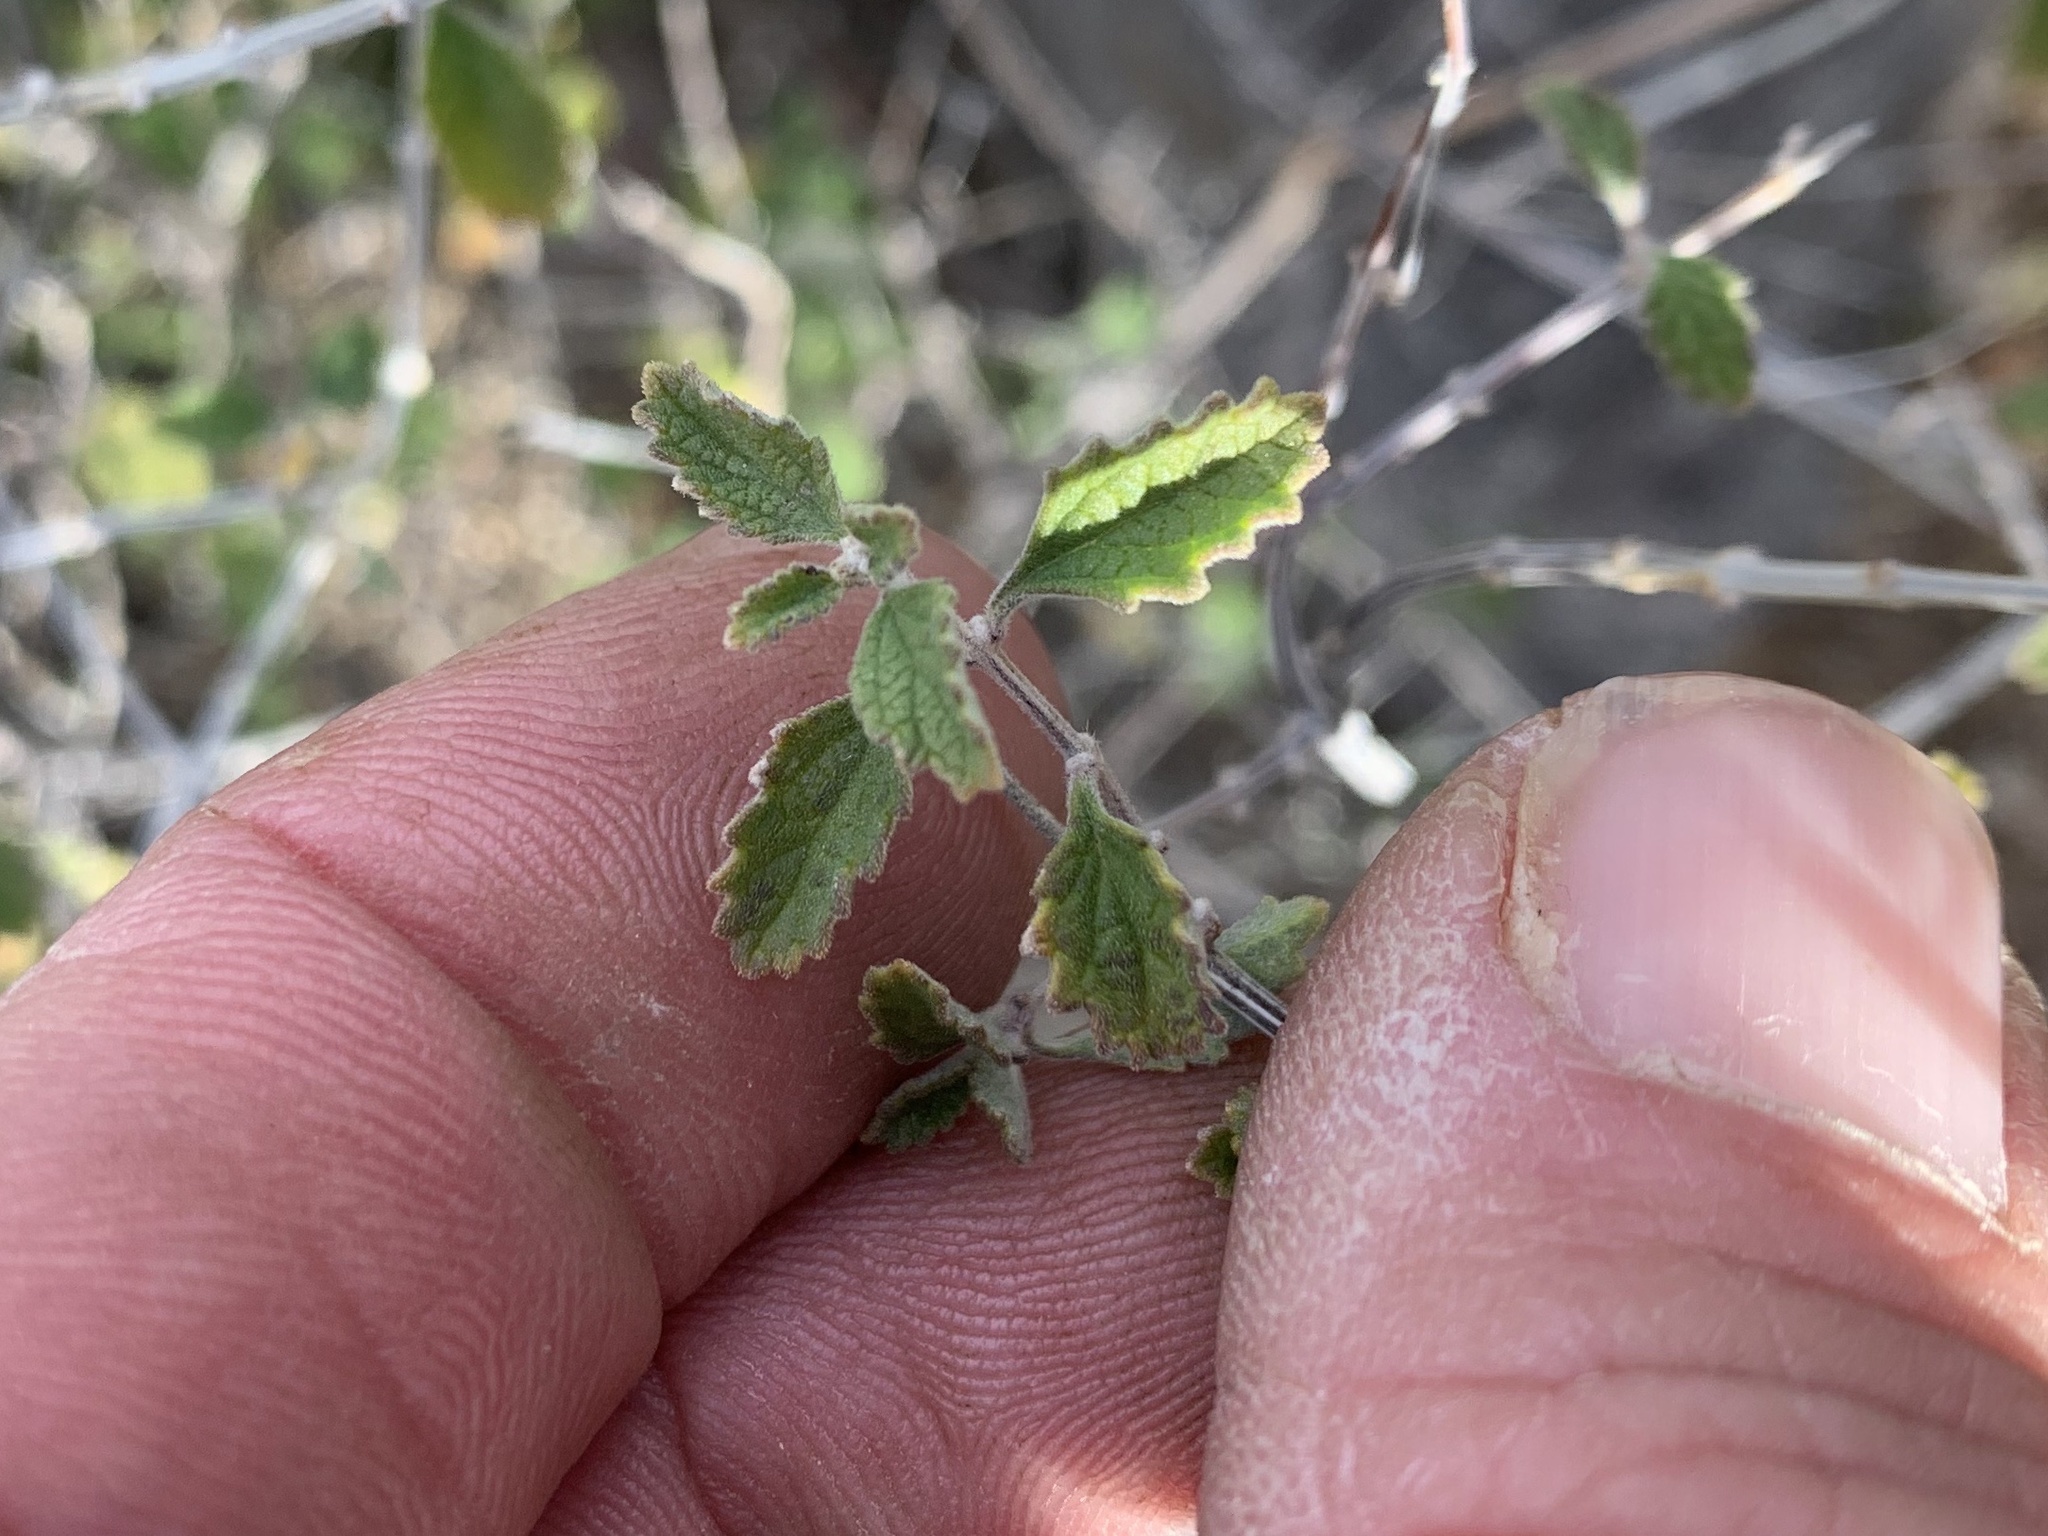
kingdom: Plantae
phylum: Tracheophyta
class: Magnoliopsida
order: Lamiales
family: Verbenaceae
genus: Aloysia
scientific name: Aloysia wrightii
